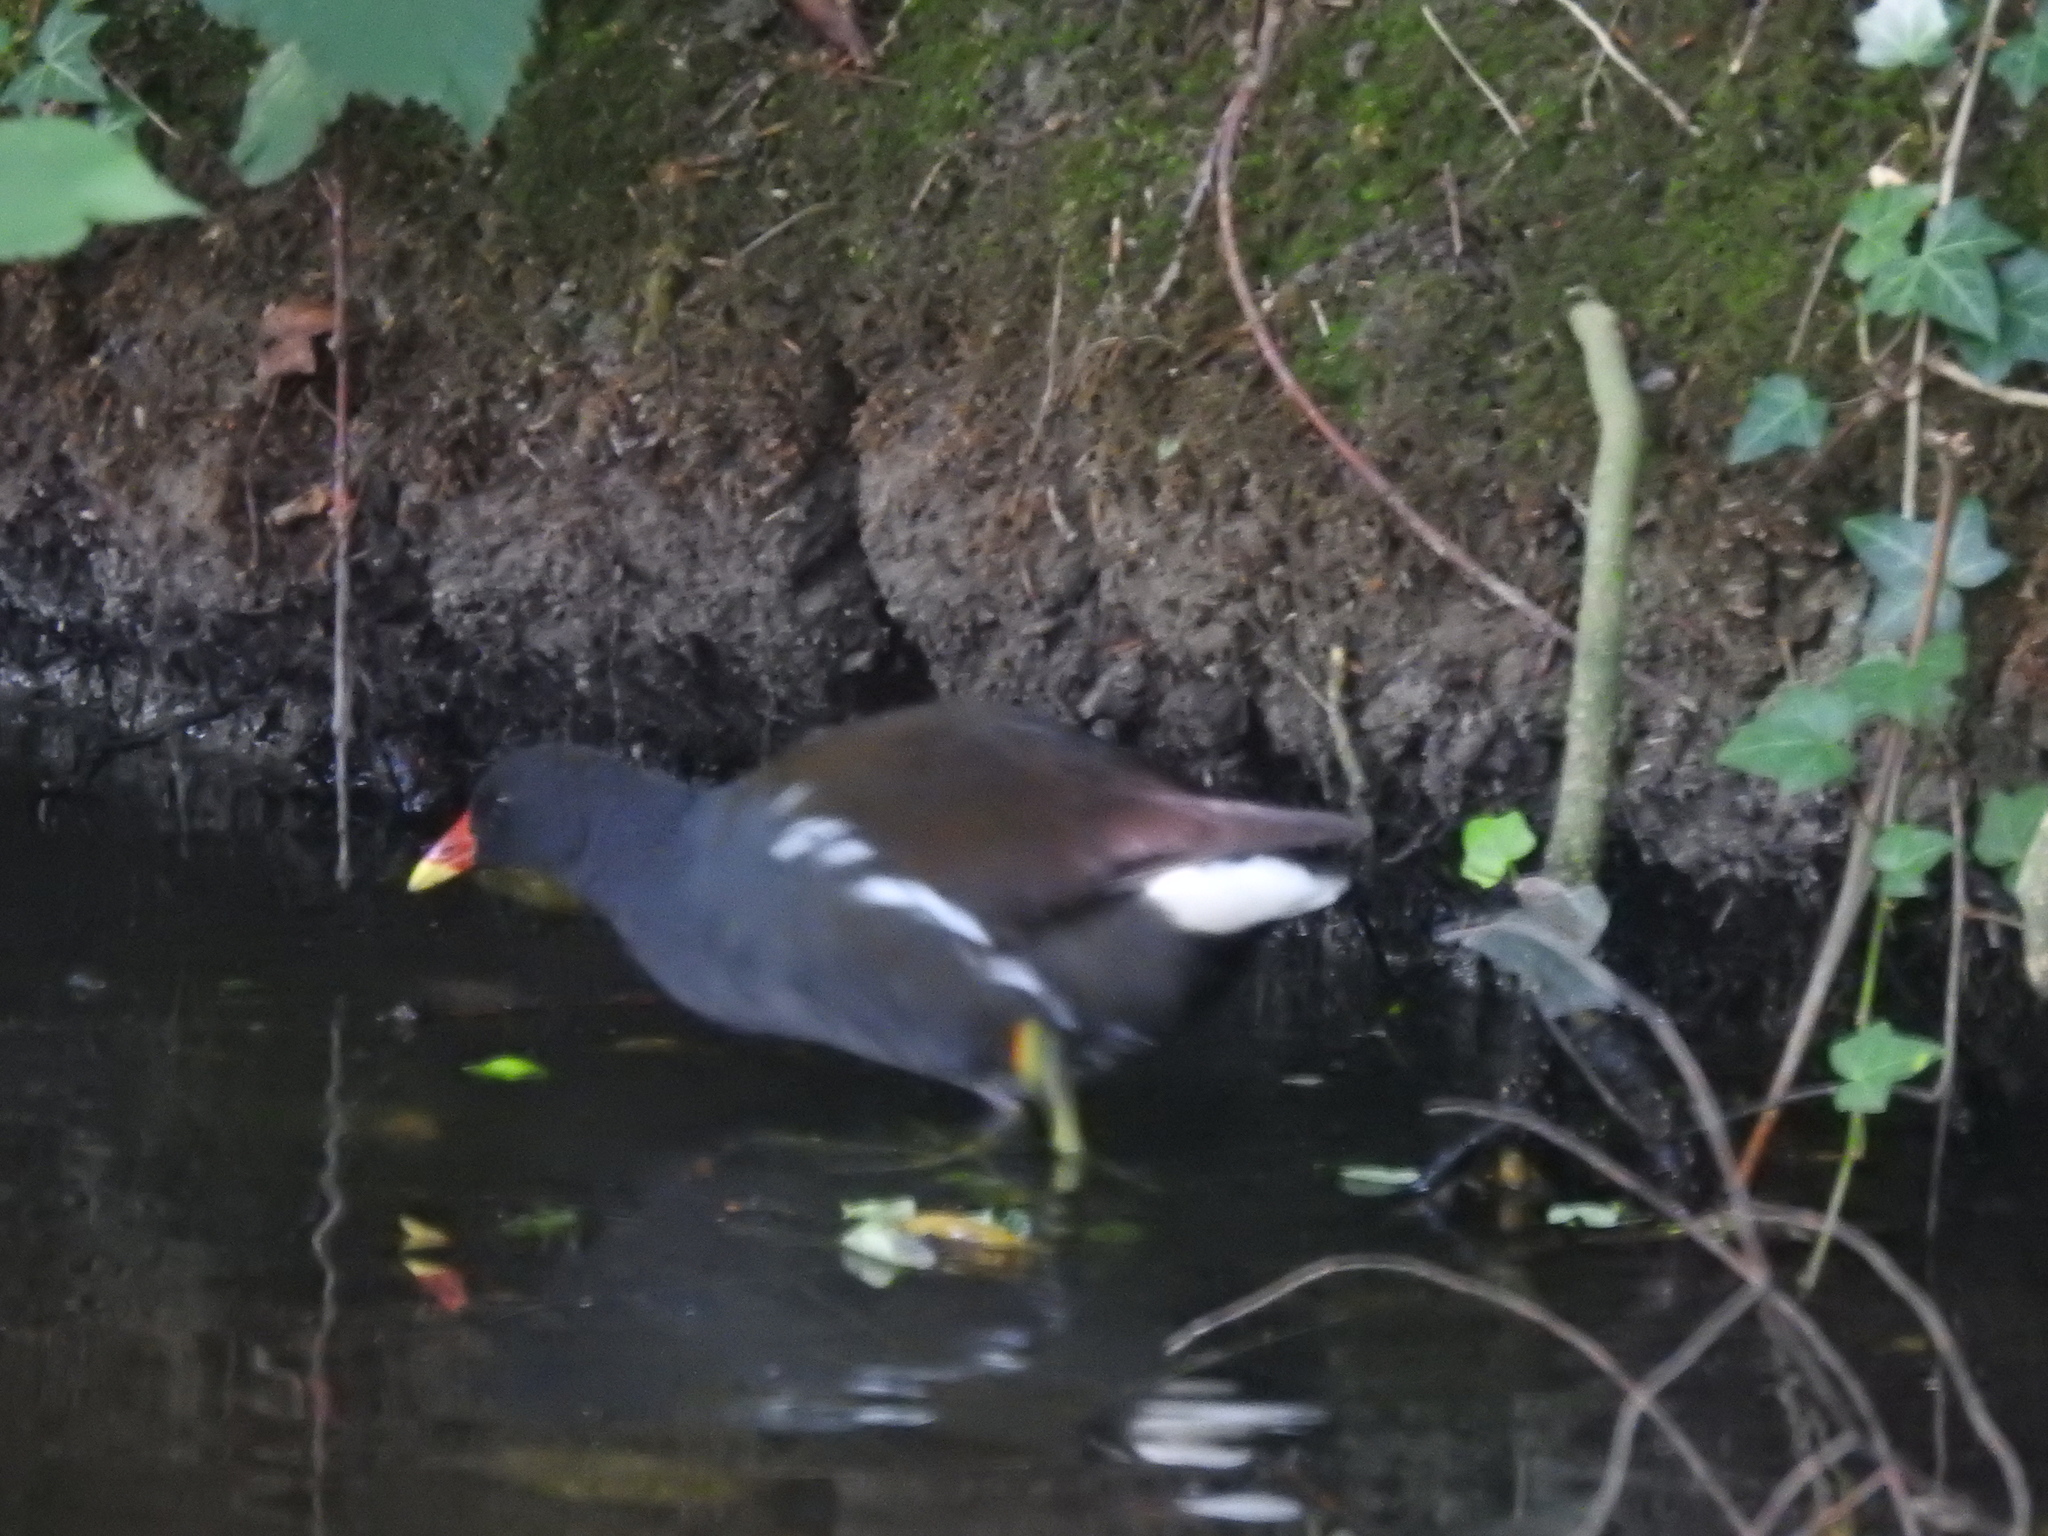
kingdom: Animalia
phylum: Chordata
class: Aves
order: Gruiformes
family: Rallidae
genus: Gallinula
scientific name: Gallinula chloropus
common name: Common moorhen
